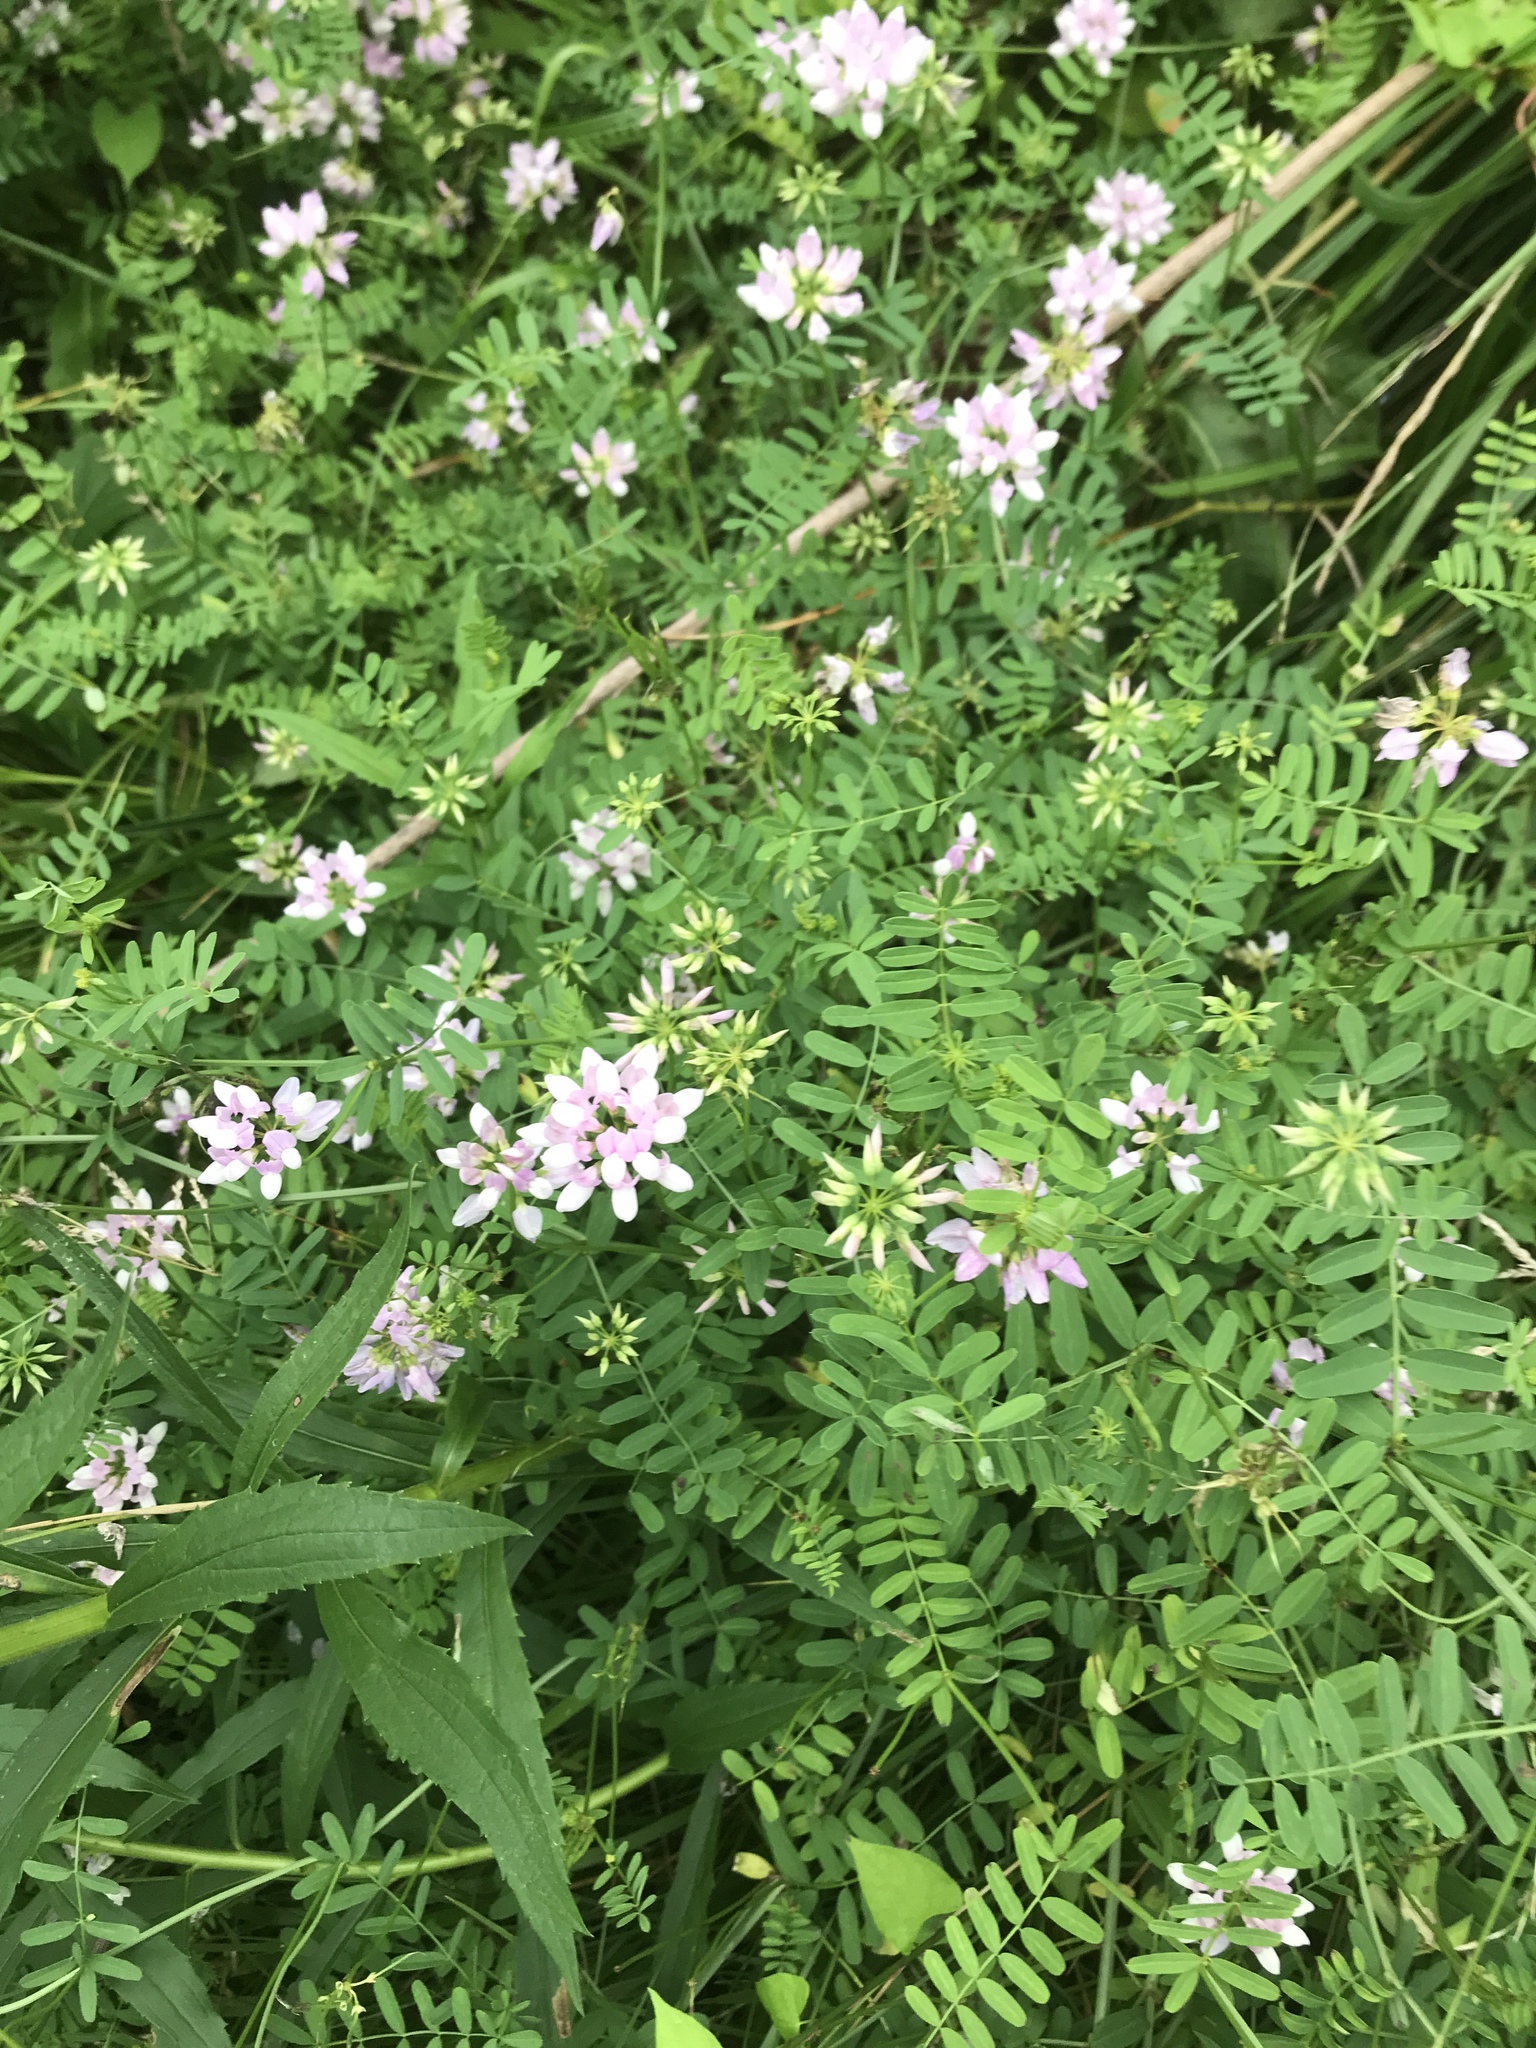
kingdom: Plantae
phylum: Tracheophyta
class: Magnoliopsida
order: Fabales
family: Fabaceae
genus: Coronilla
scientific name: Coronilla varia
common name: Crownvetch
